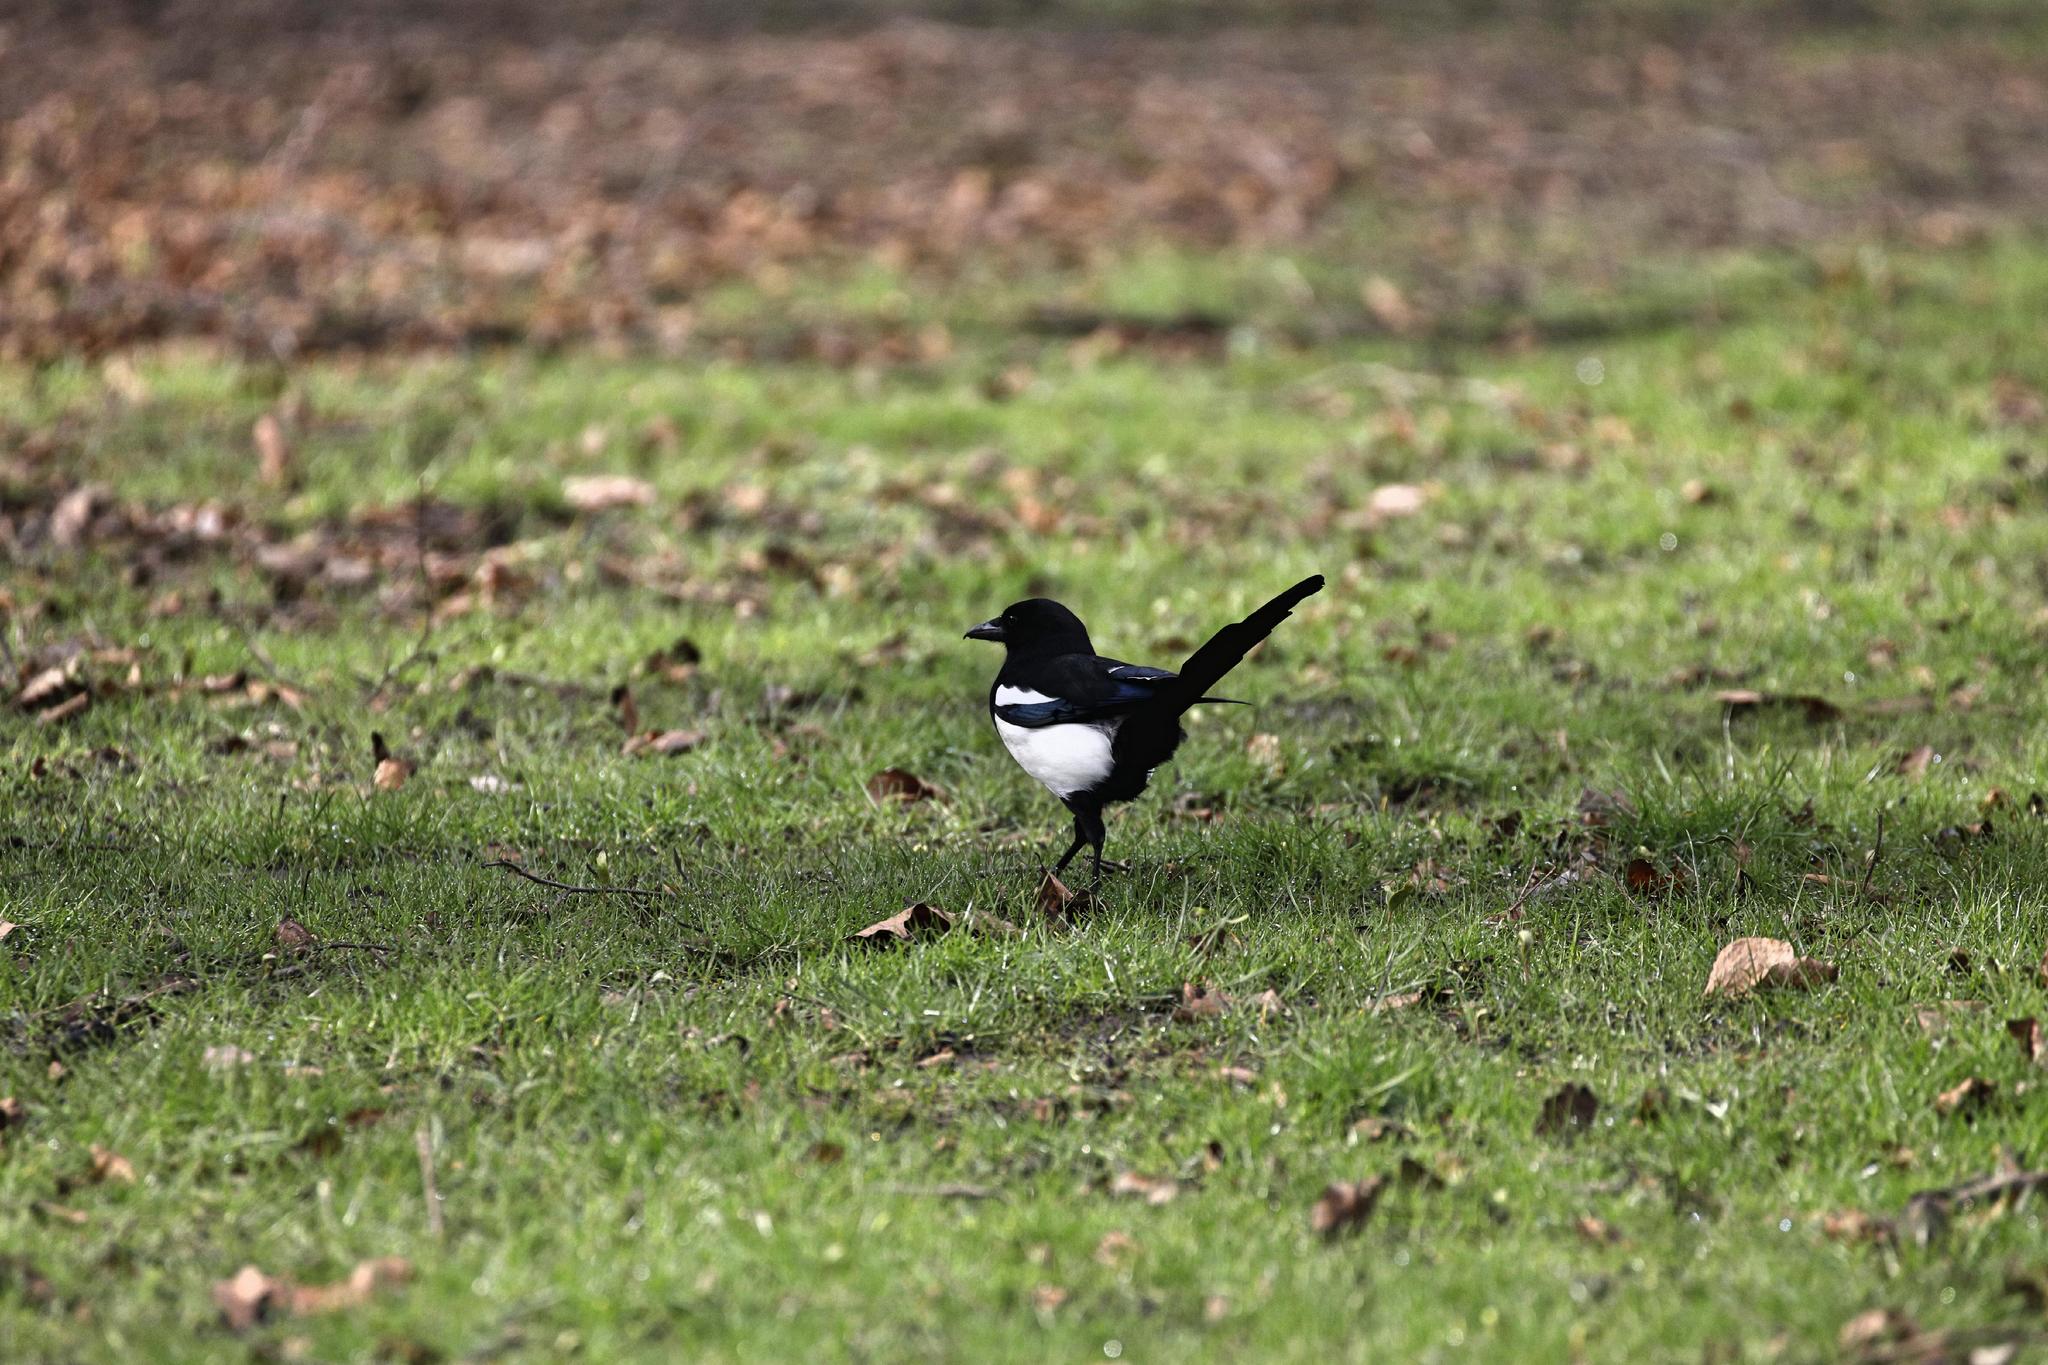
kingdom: Animalia
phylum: Chordata
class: Aves
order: Passeriformes
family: Corvidae
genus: Pica
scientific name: Pica pica
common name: Eurasian magpie
